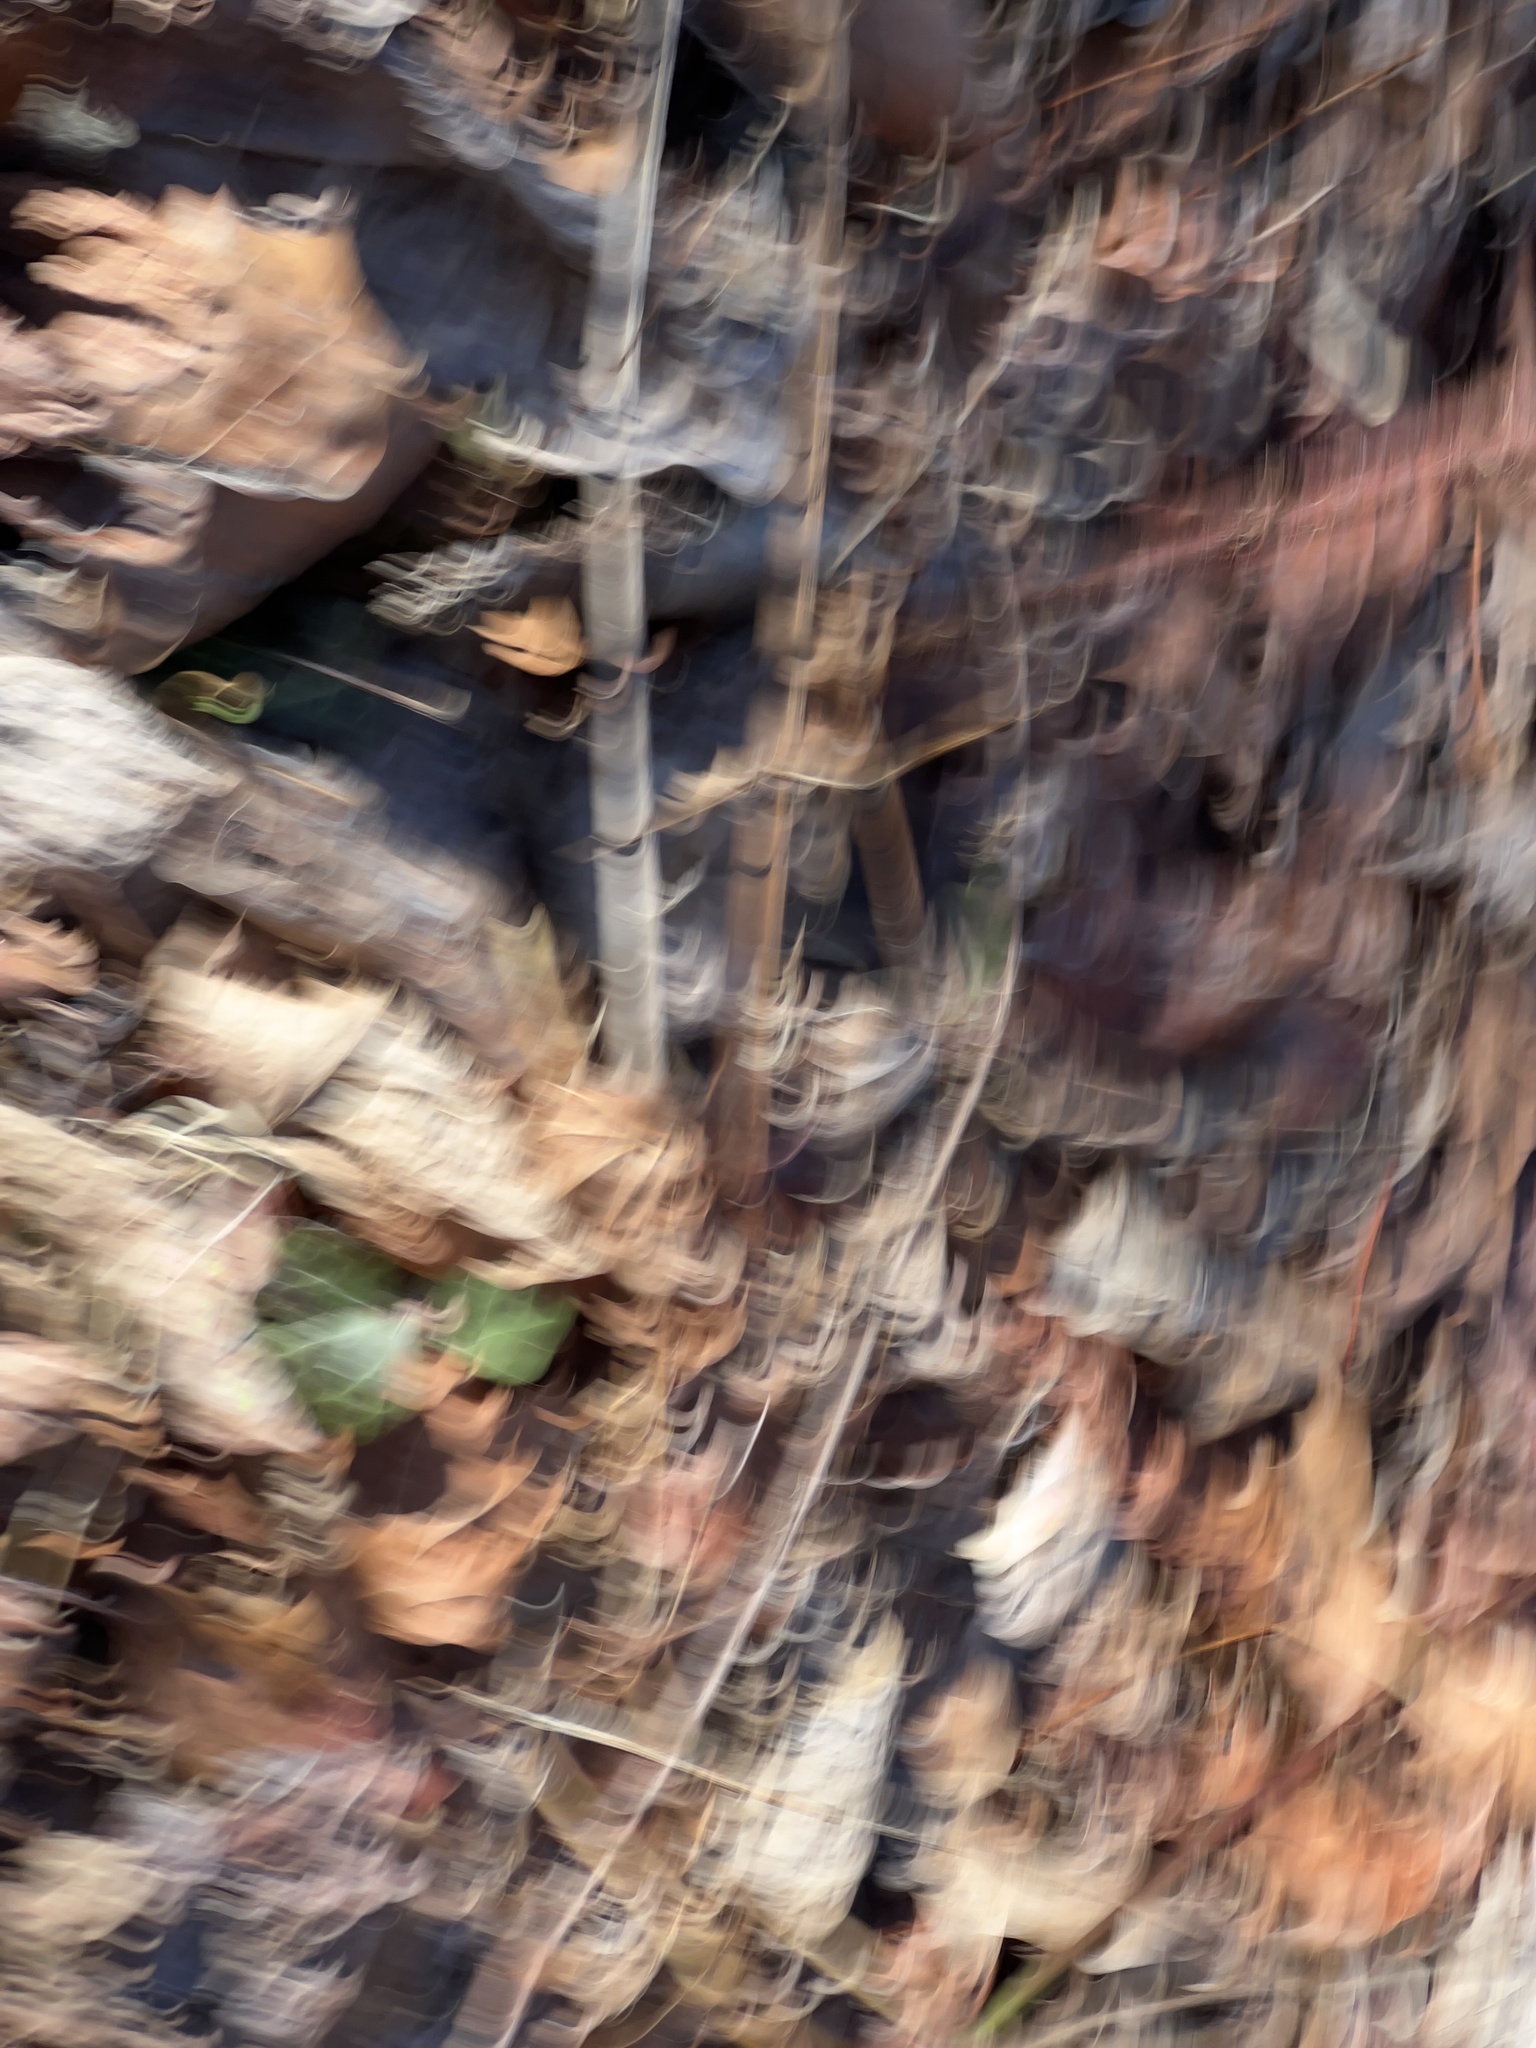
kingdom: Plantae
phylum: Tracheophyta
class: Magnoliopsida
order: Rosales
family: Rosaceae
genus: Rubus
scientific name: Rubus phoenicolasius
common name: Japanese wineberry
